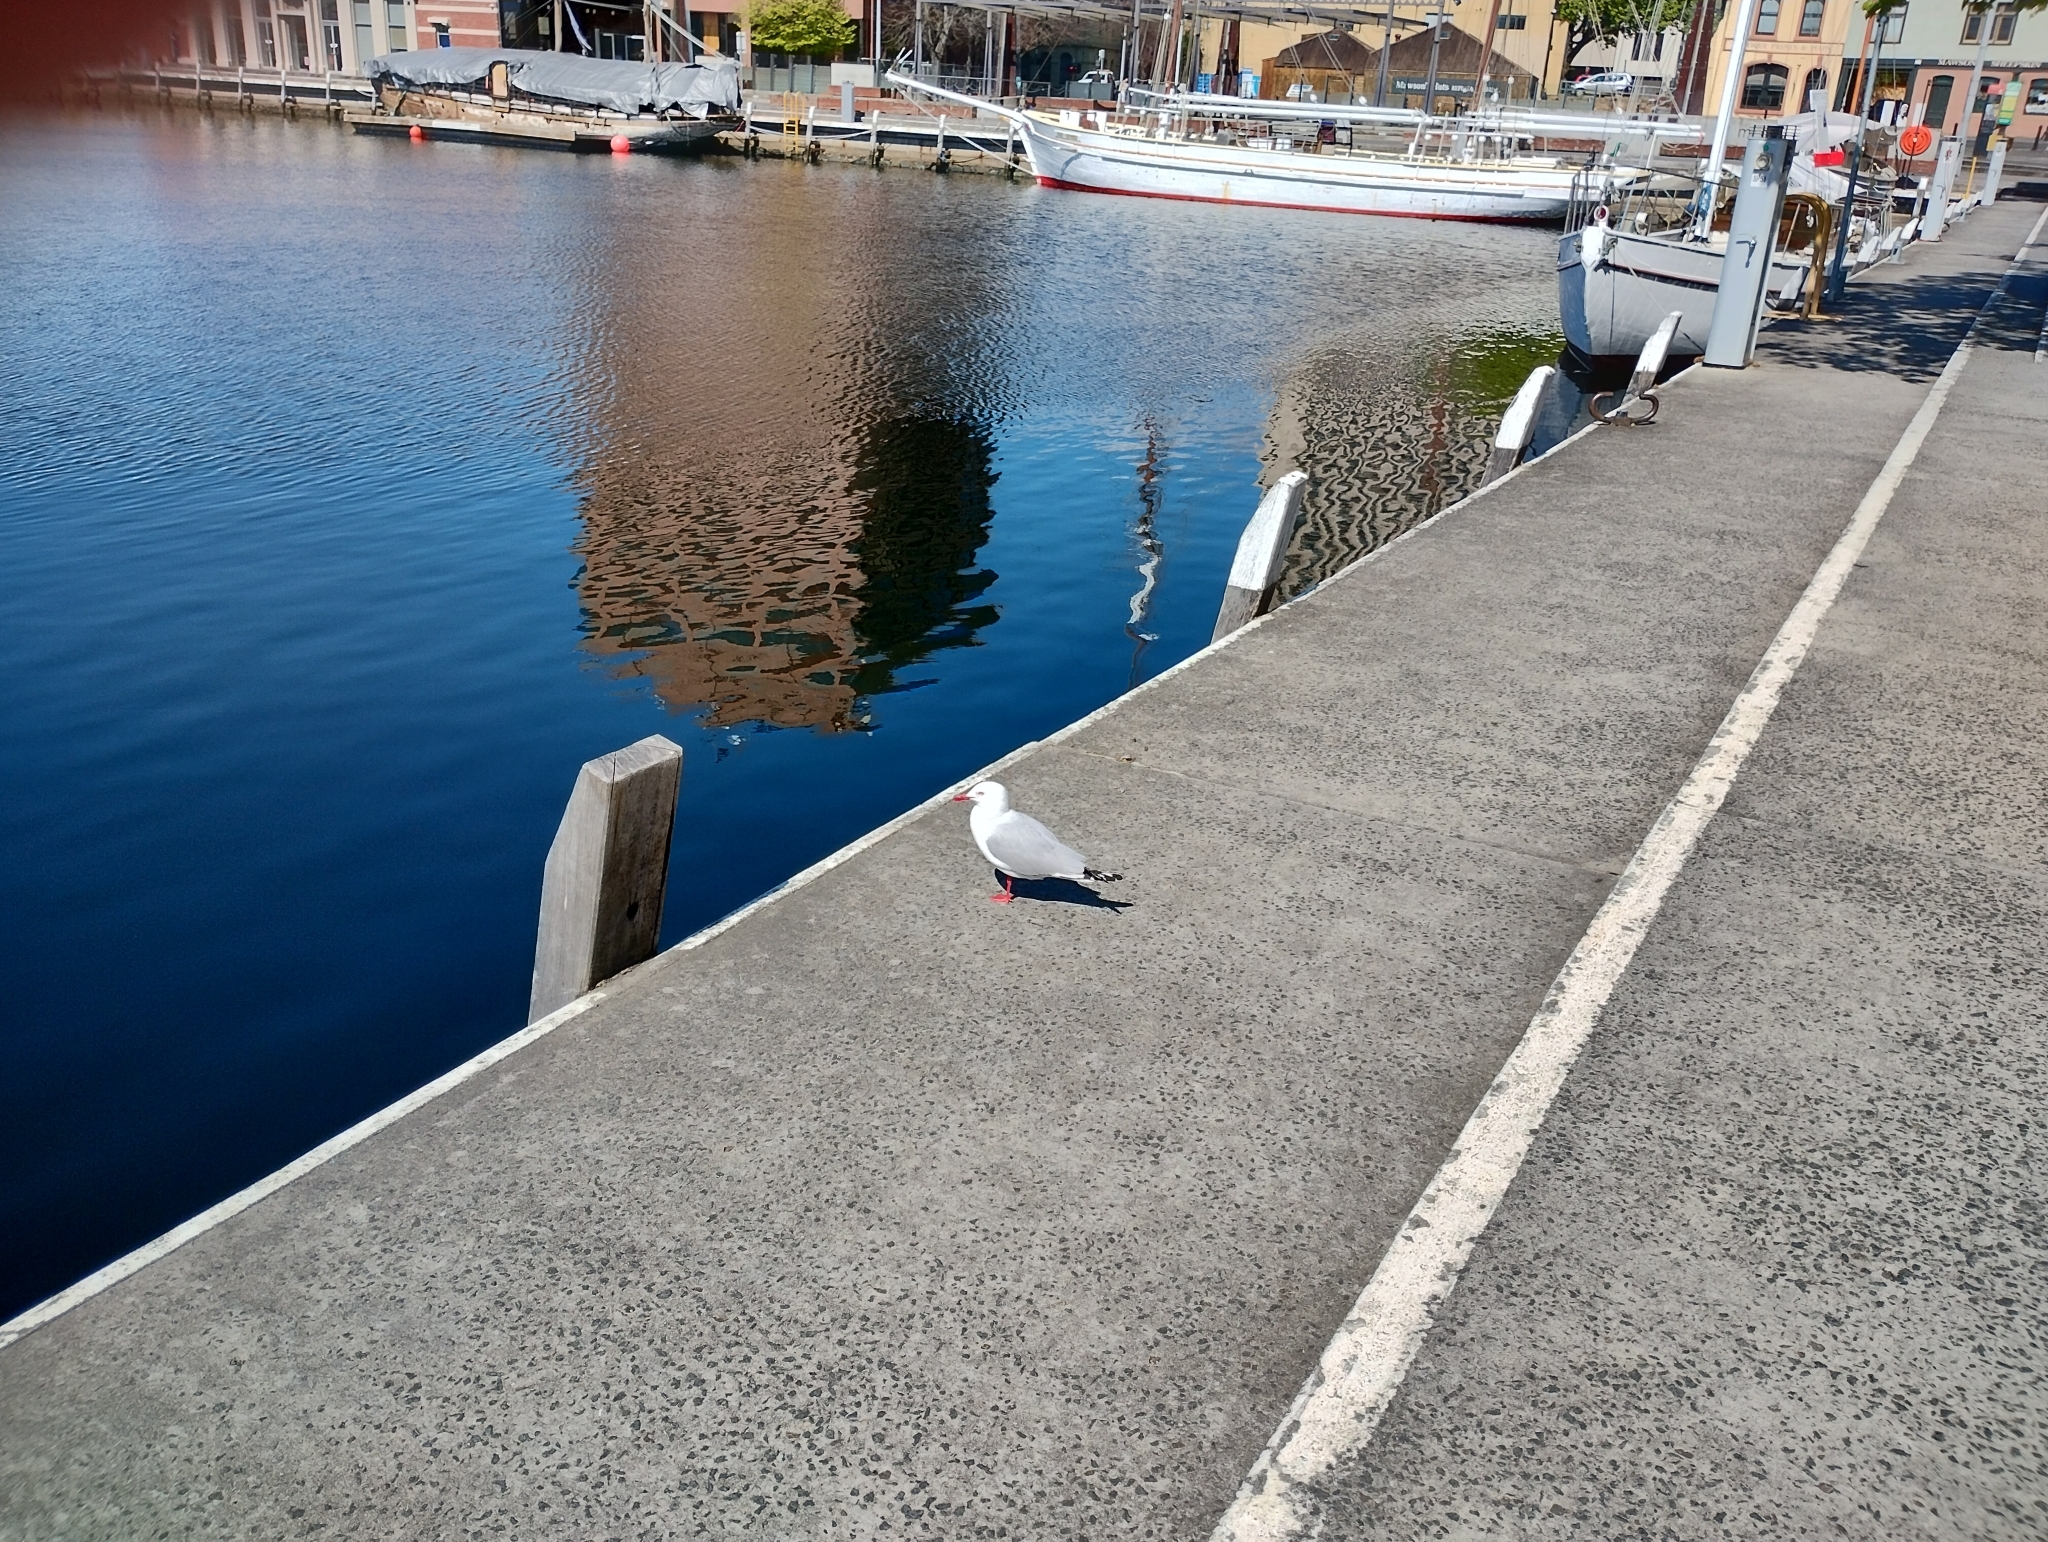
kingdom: Animalia
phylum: Chordata
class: Aves
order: Charadriiformes
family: Laridae
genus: Chroicocephalus
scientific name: Chroicocephalus novaehollandiae
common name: Silver gull
